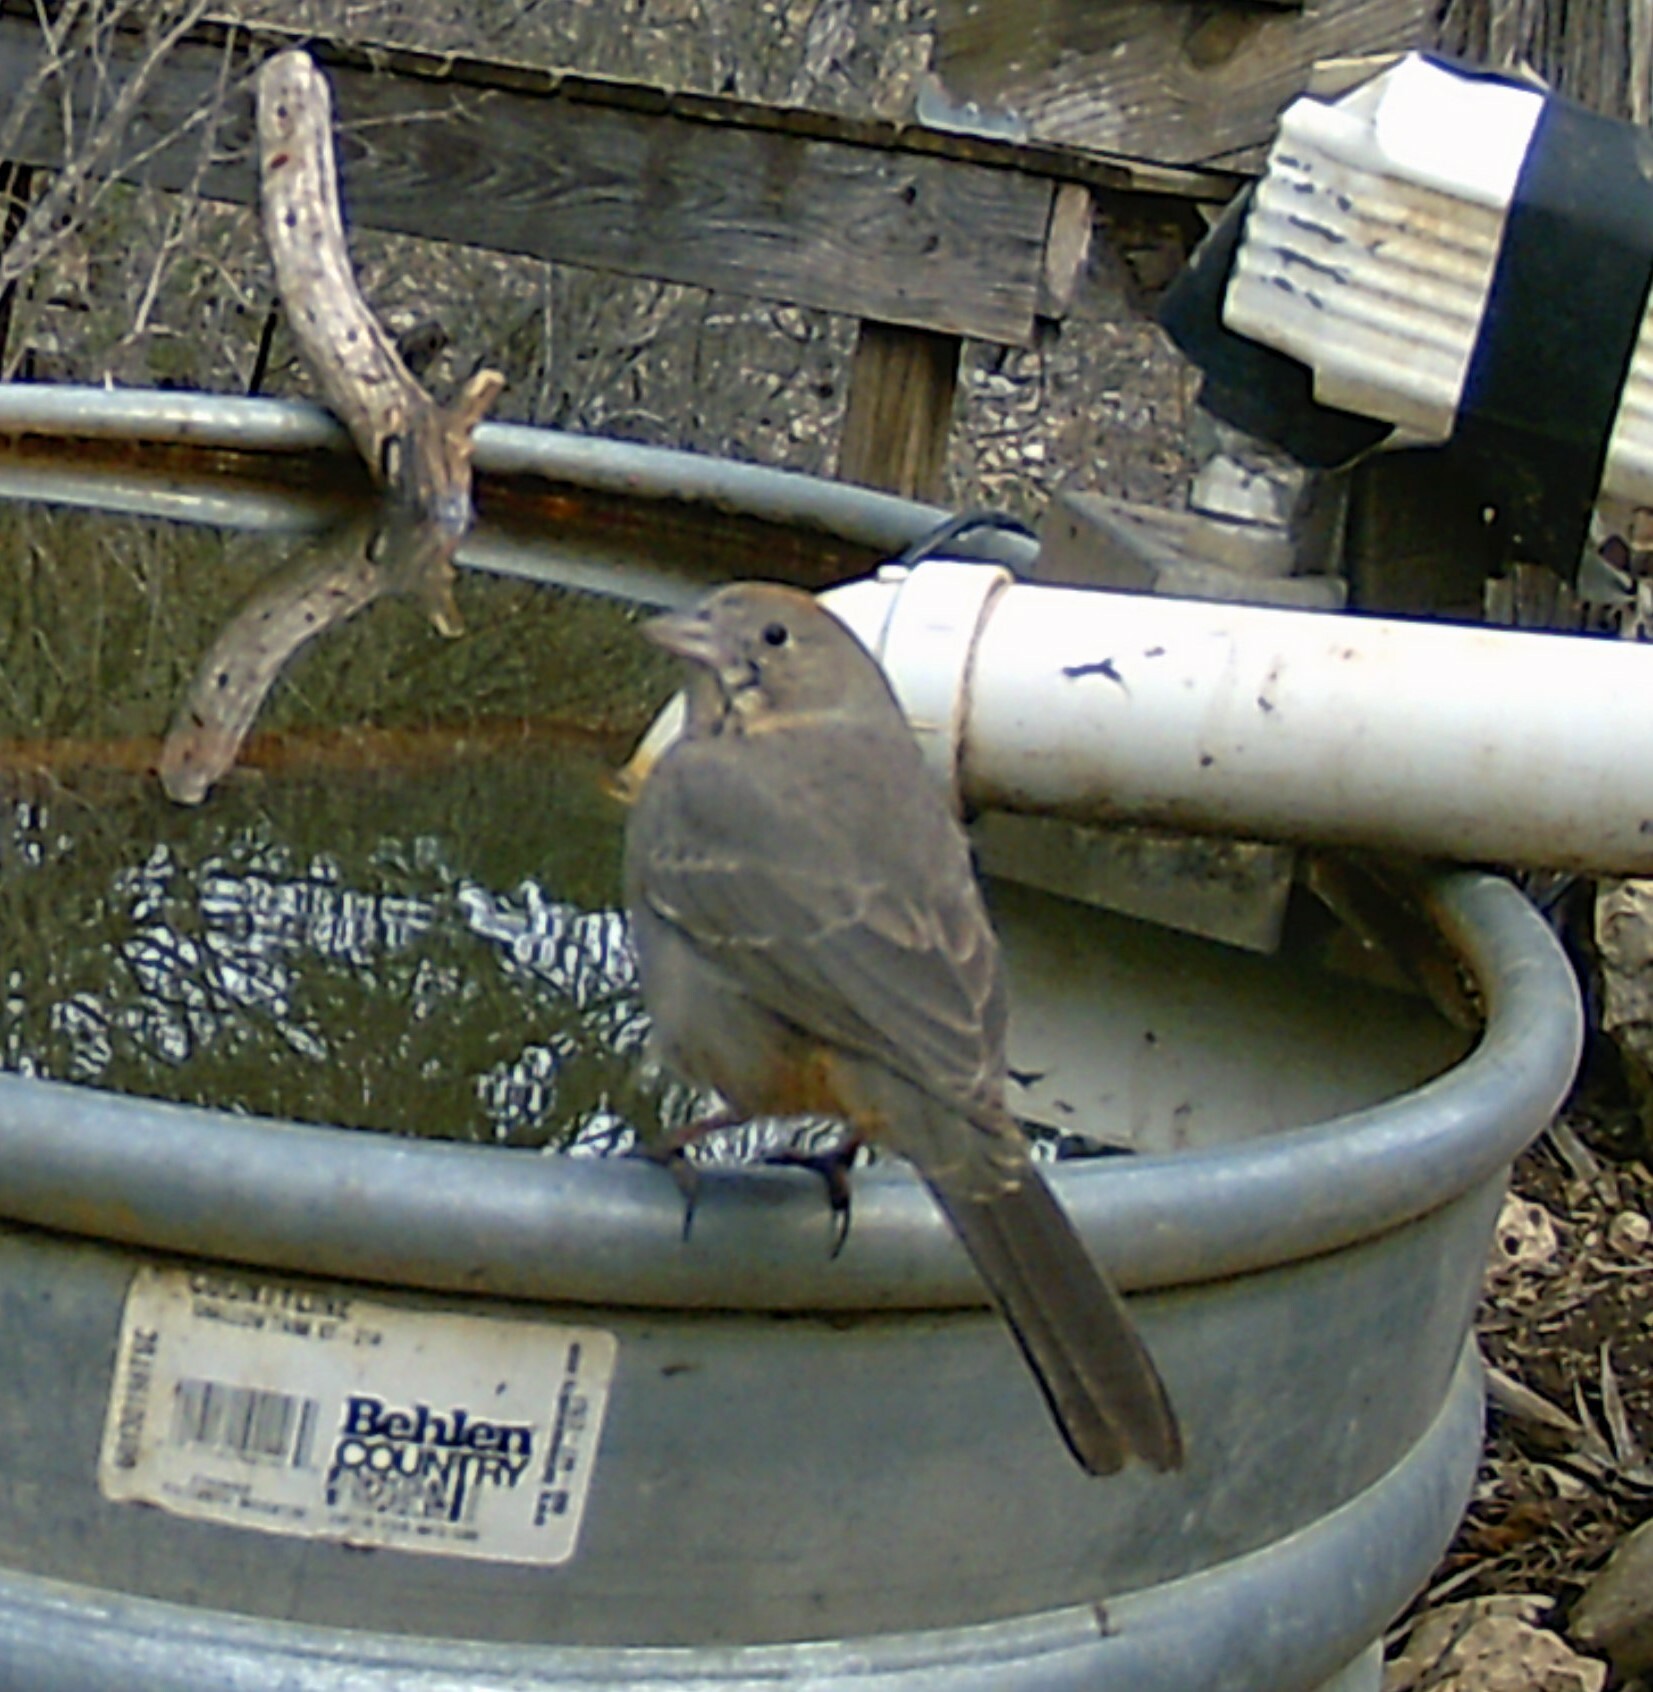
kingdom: Animalia
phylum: Chordata
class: Aves
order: Passeriformes
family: Passerellidae
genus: Melozone
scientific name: Melozone fusca
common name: Canyon towhee
